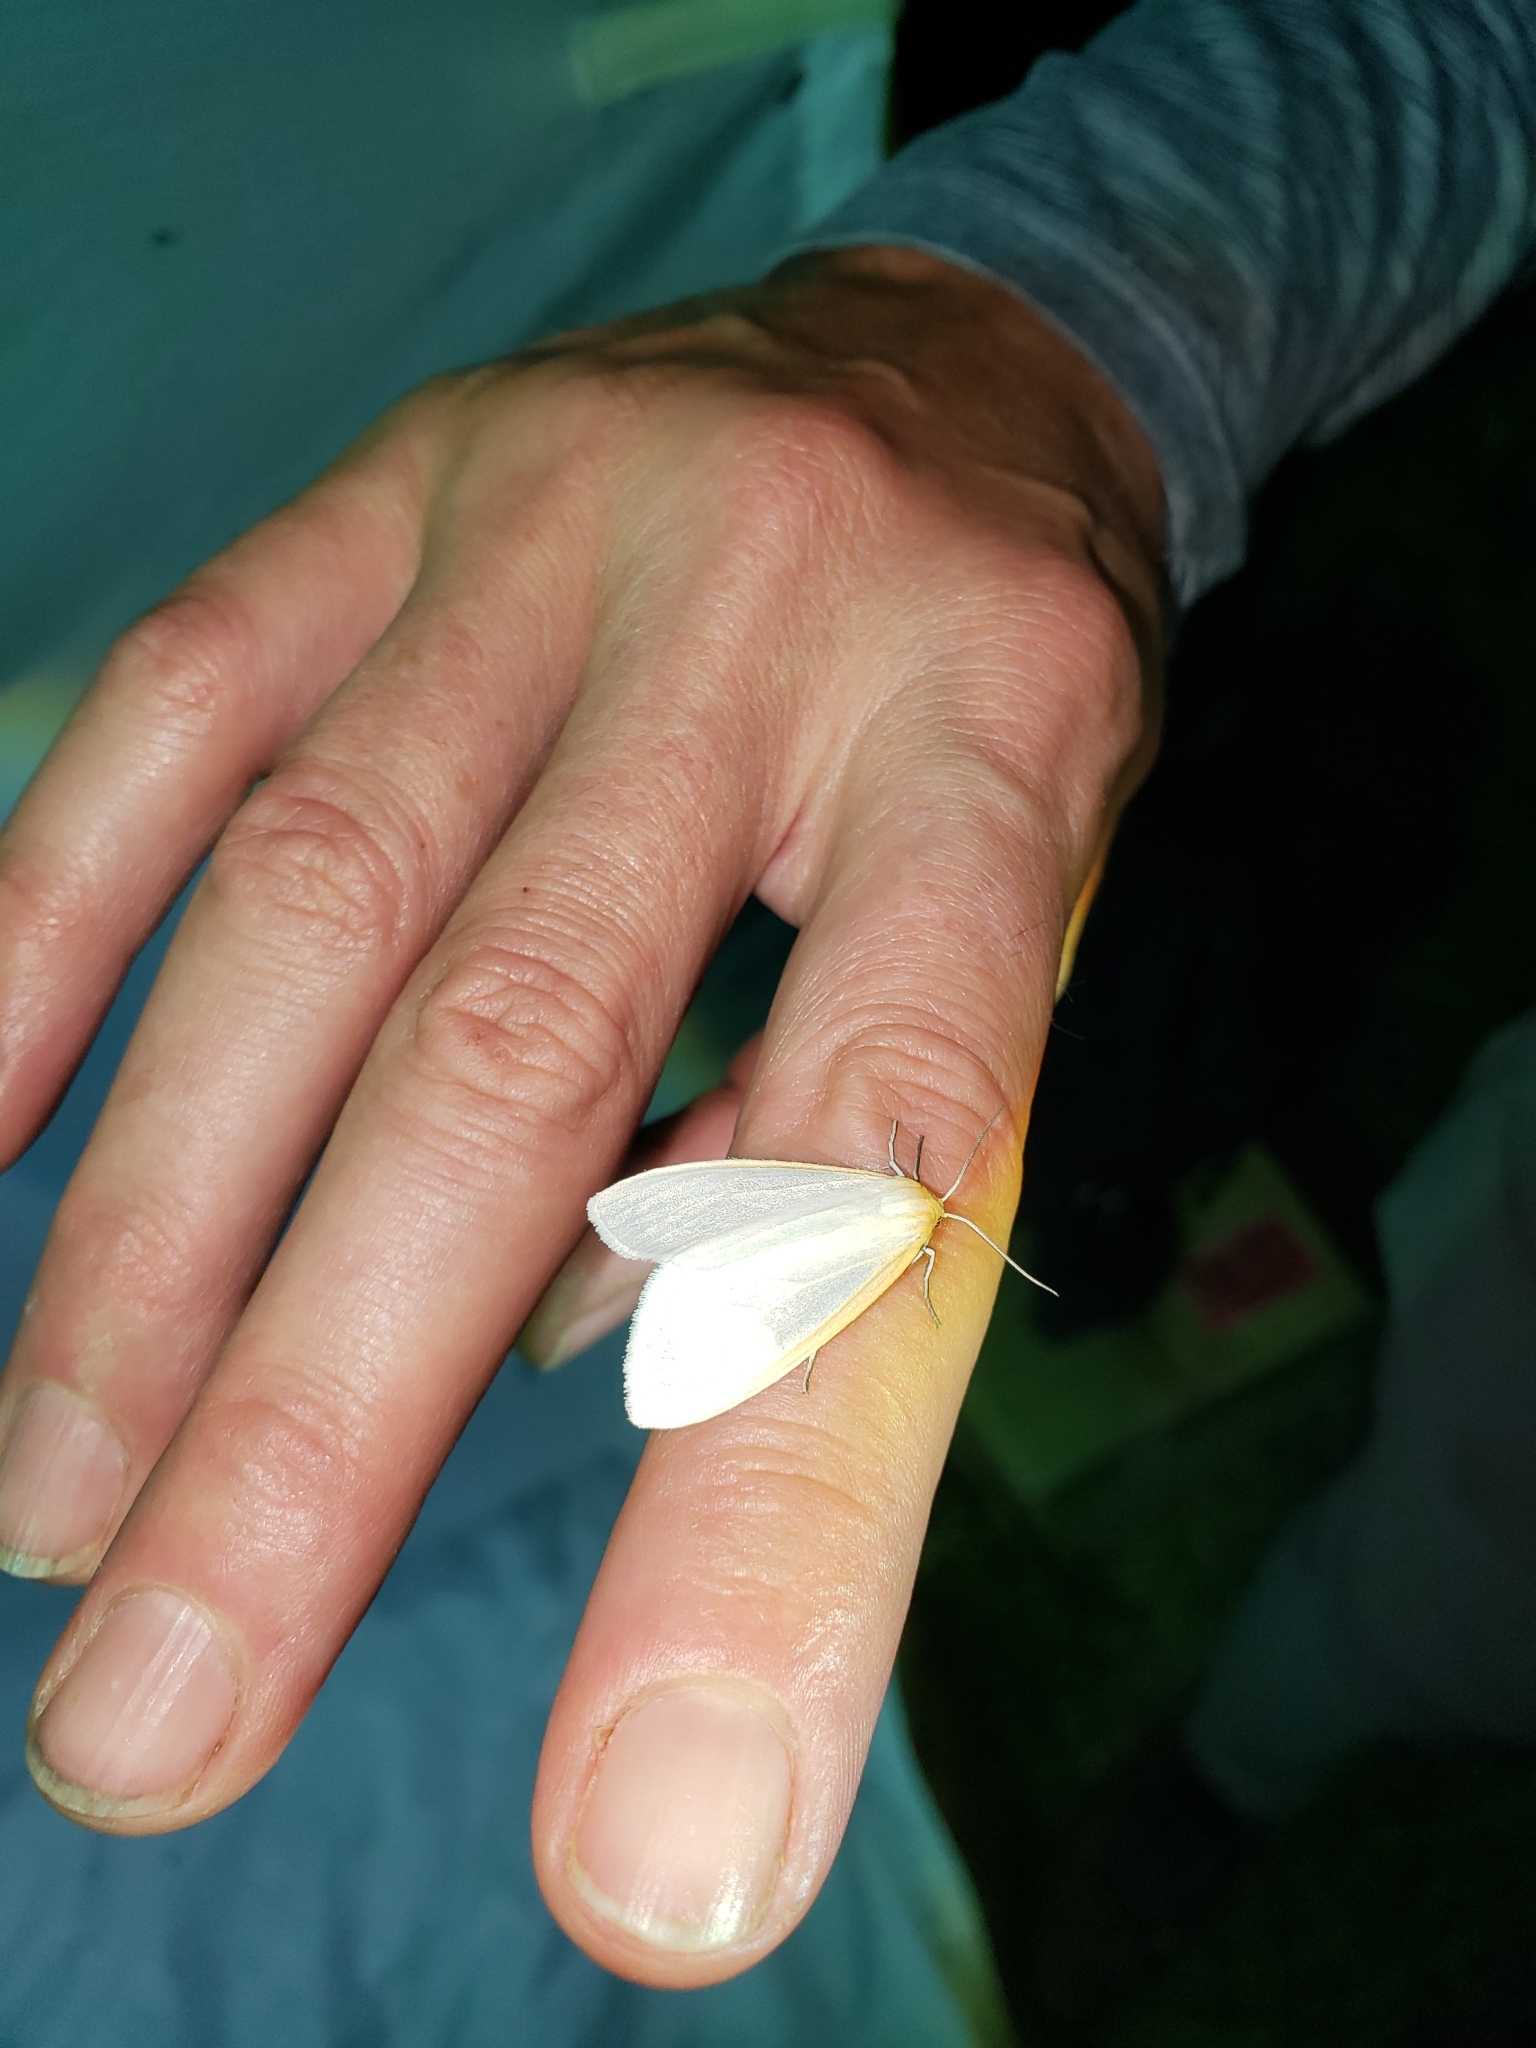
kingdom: Animalia
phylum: Arthropoda
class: Insecta
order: Lepidoptera
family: Erebidae
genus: Cycnia
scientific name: Cycnia tenera
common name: Delicate cycnia moth
